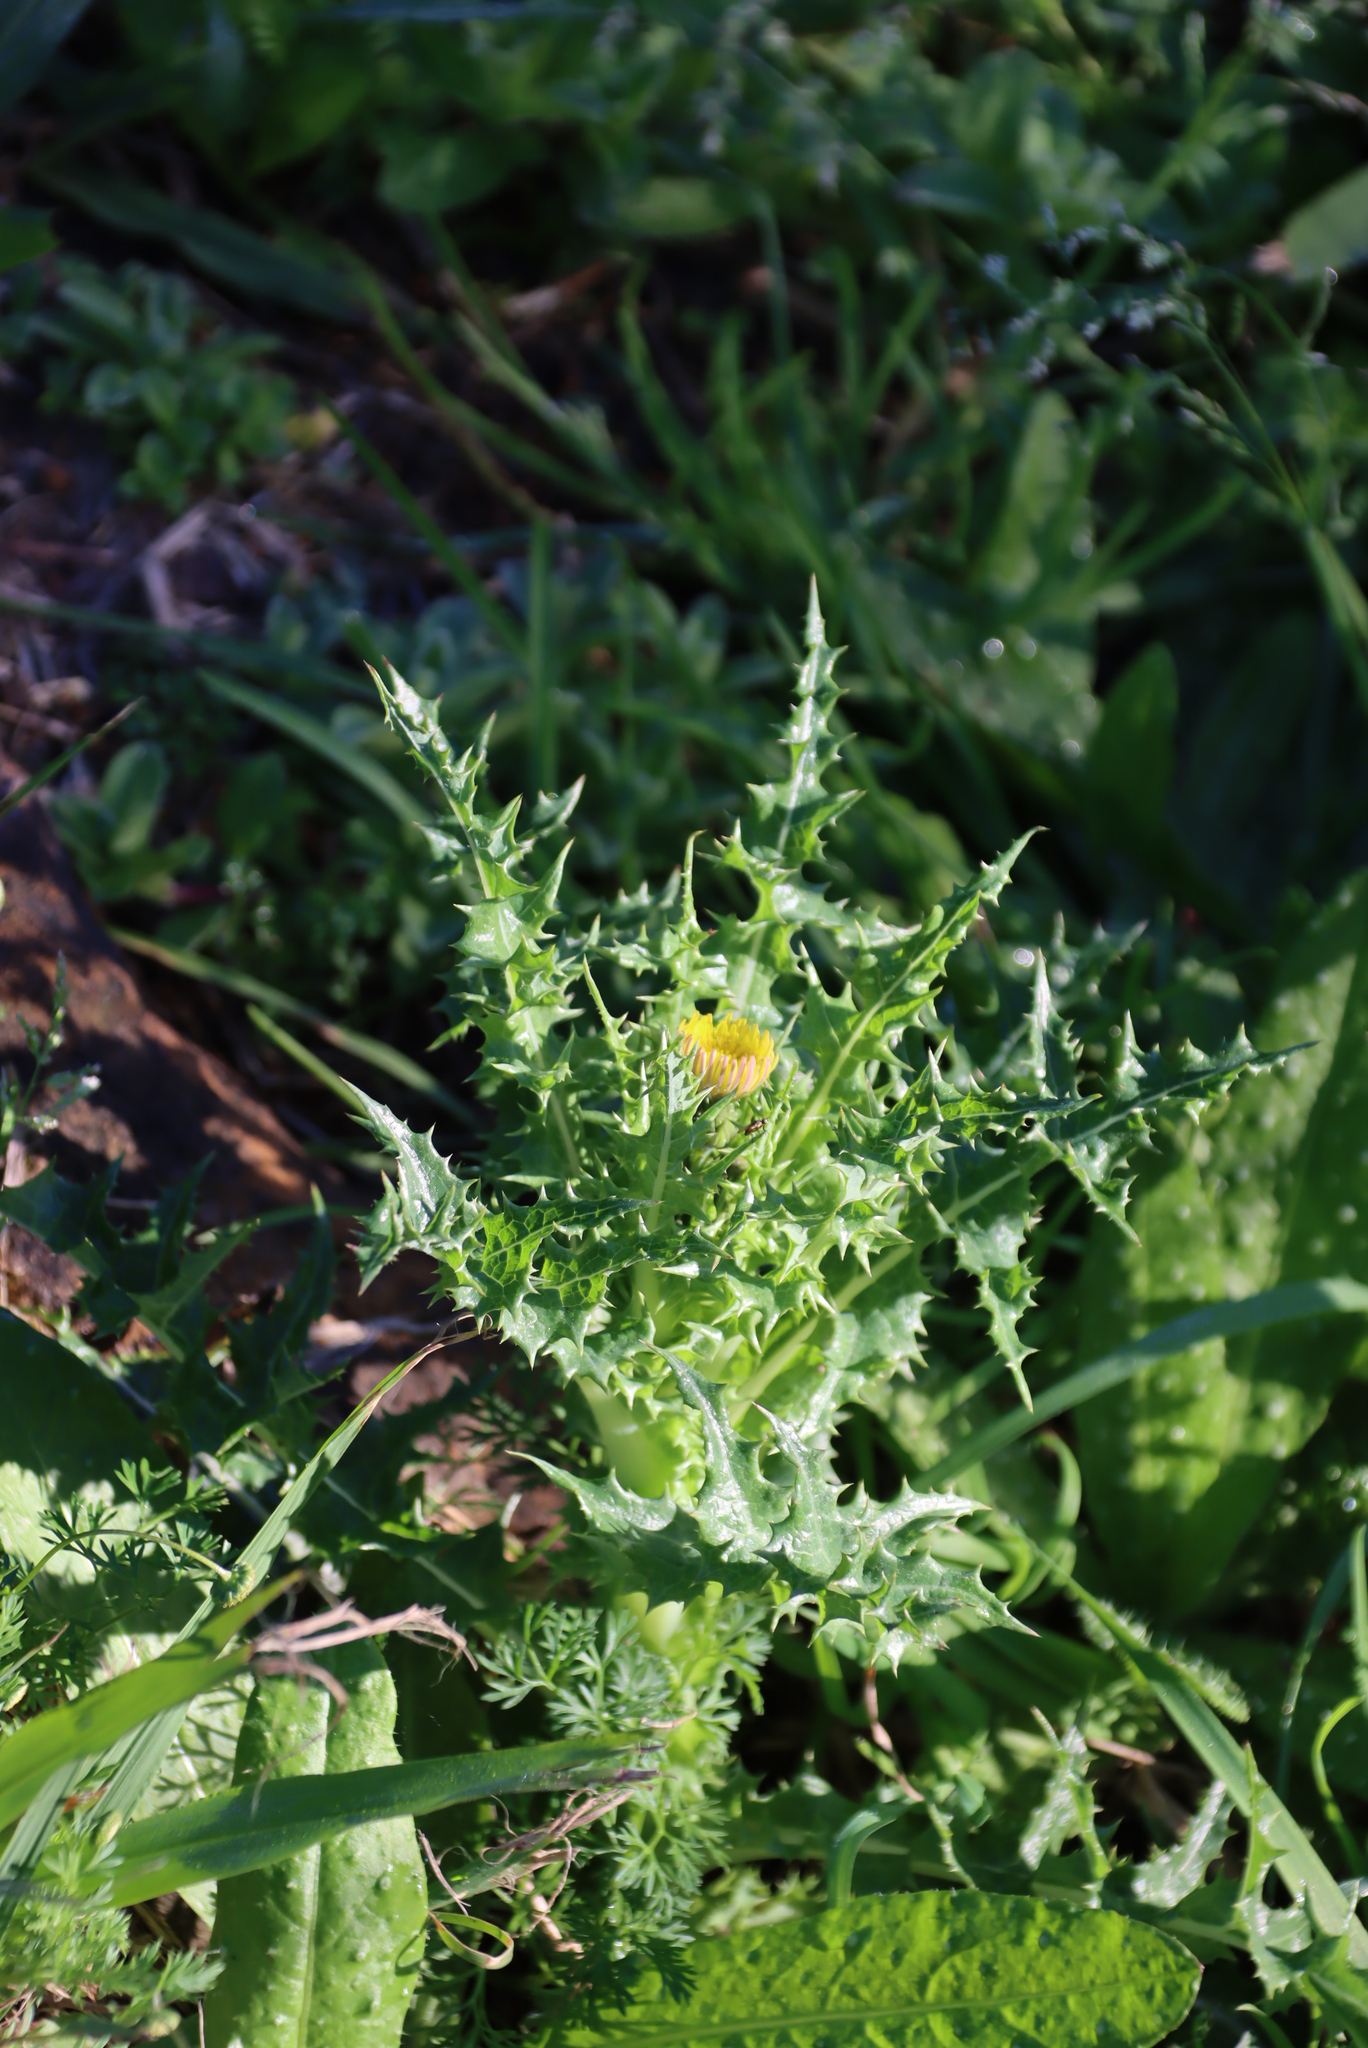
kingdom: Plantae
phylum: Tracheophyta
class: Magnoliopsida
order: Asterales
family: Asteraceae
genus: Sonchus
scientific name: Sonchus asper
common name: Prickly sow-thistle
